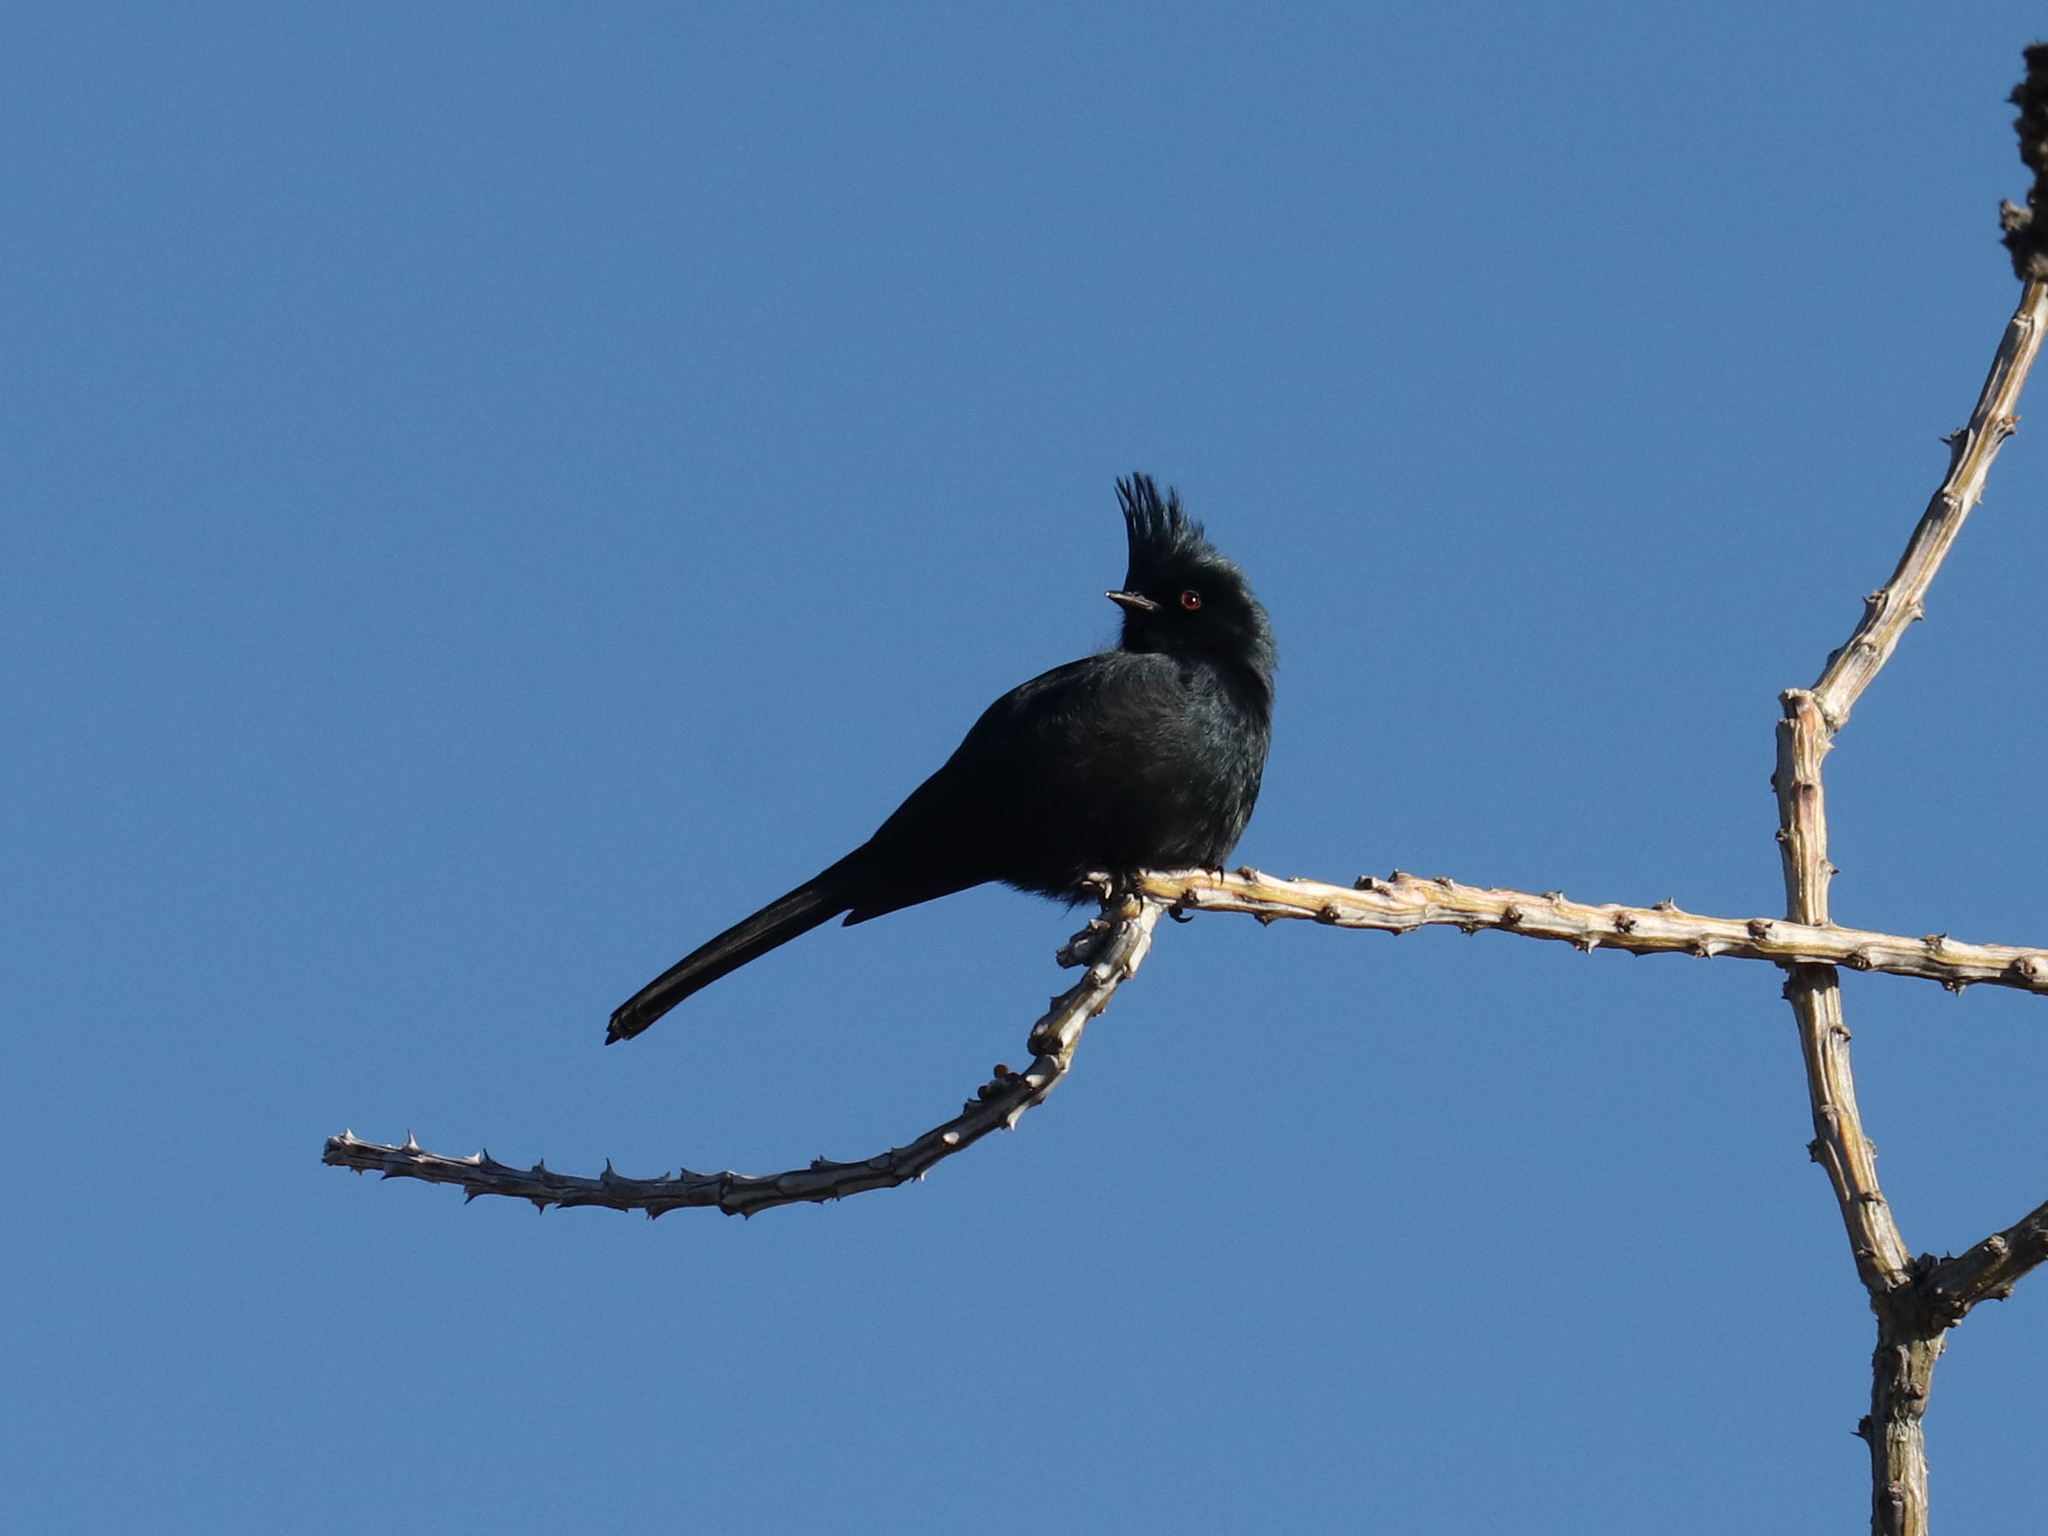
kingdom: Animalia
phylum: Chordata
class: Aves
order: Passeriformes
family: Ptilogonatidae
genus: Phainopepla
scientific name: Phainopepla nitens
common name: Phainopepla
